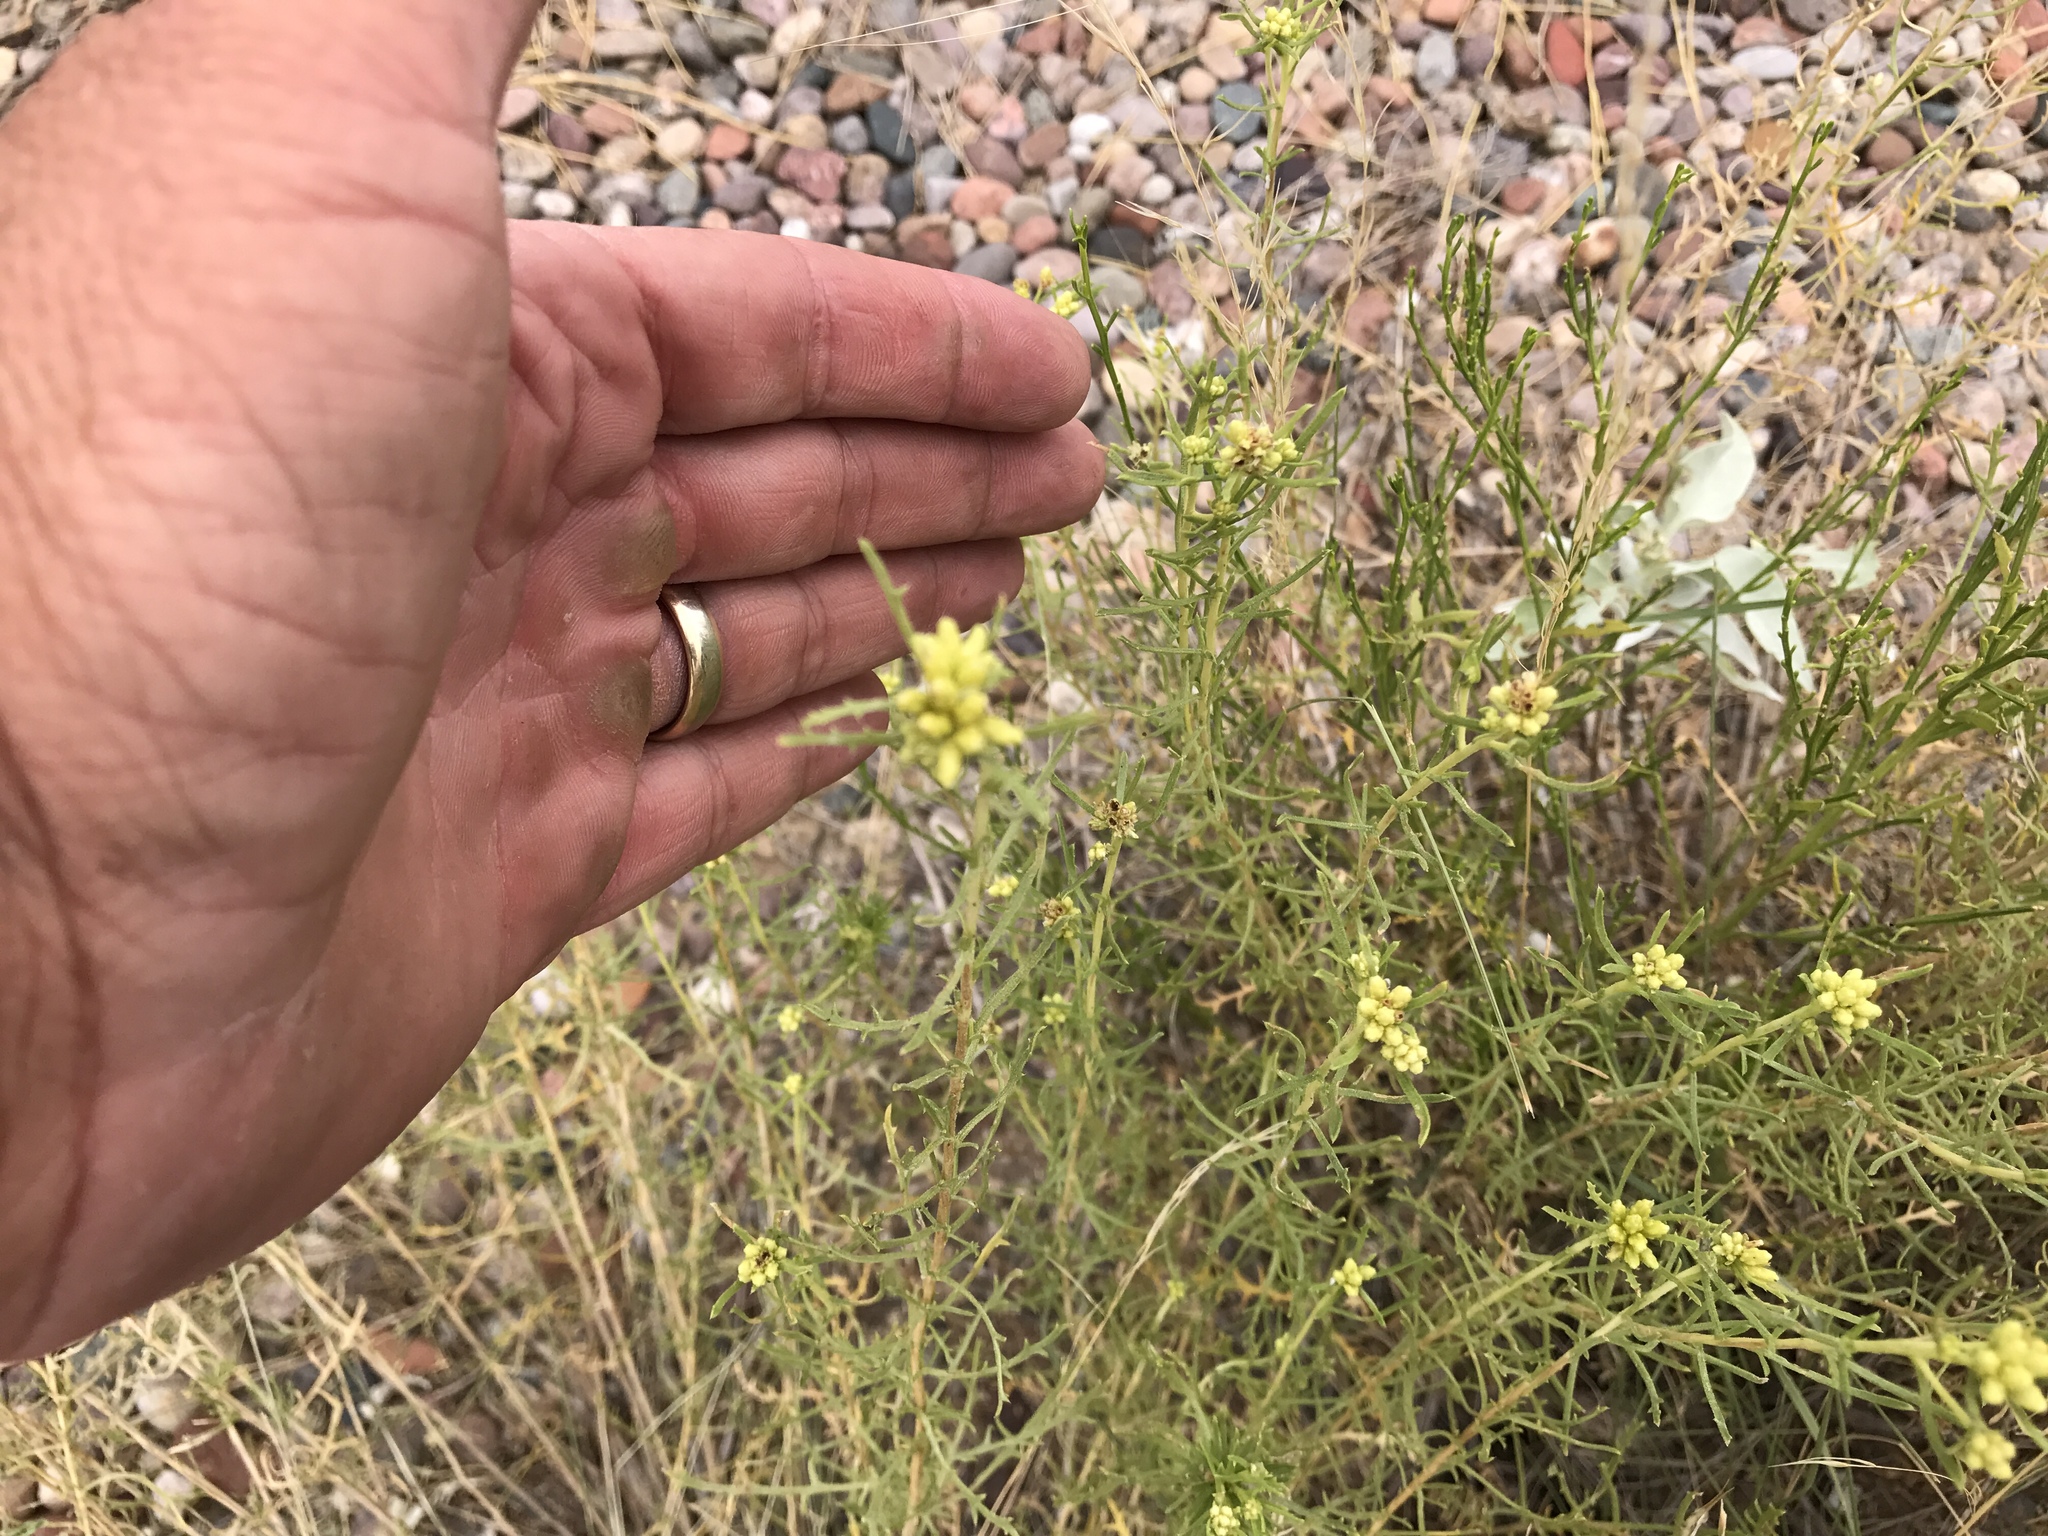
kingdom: Plantae
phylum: Tracheophyta
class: Magnoliopsida
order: Asterales
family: Asteraceae
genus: Isocoma
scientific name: Isocoma tenuisecta
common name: Burroweed
